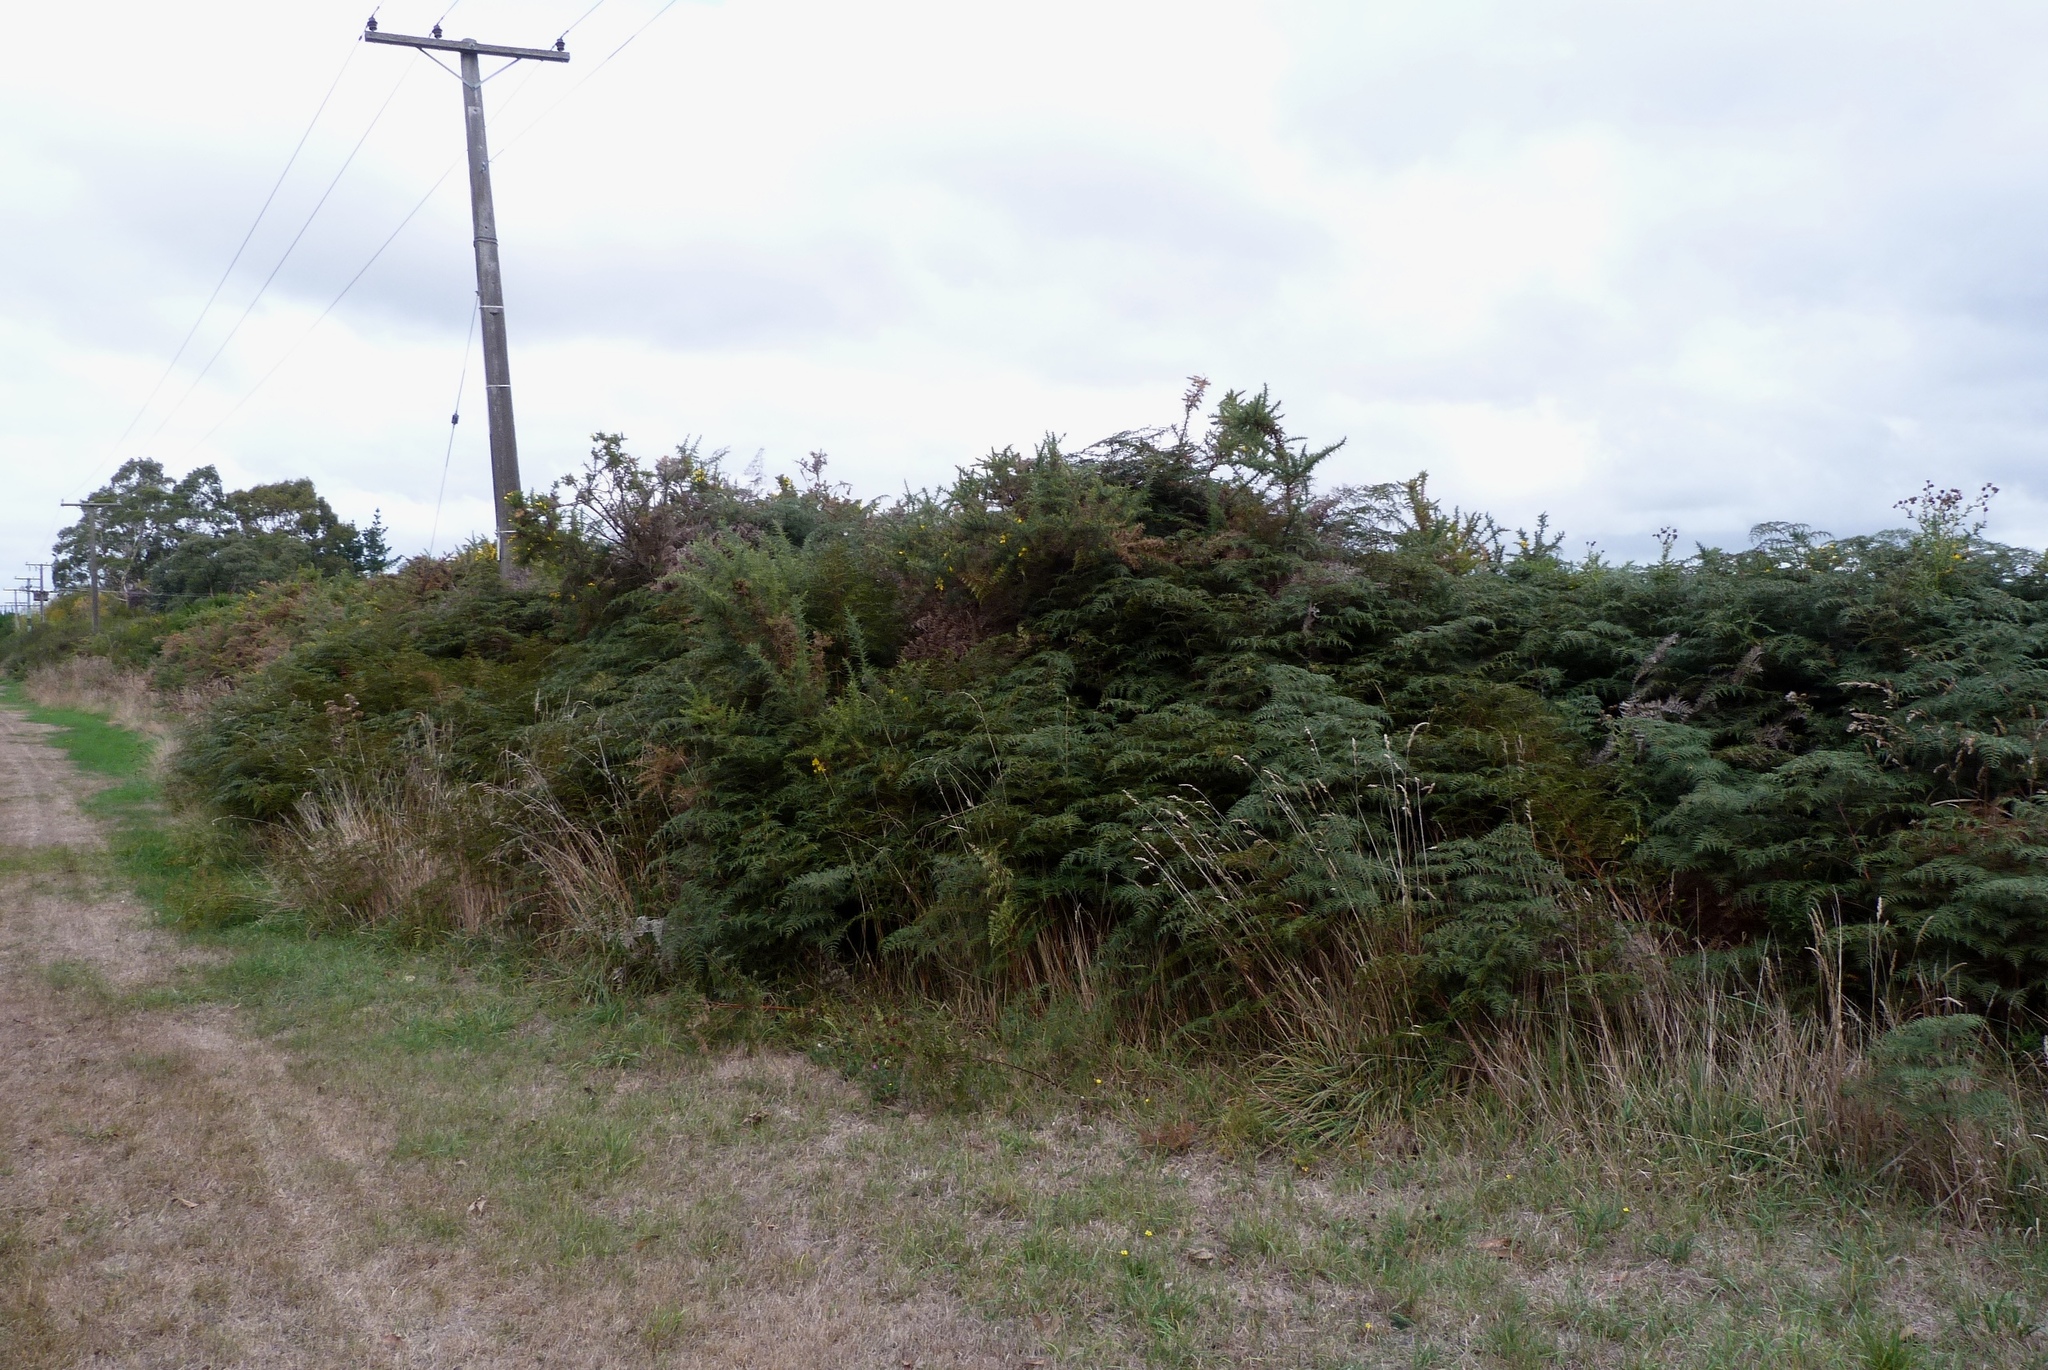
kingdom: Plantae
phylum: Tracheophyta
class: Polypodiopsida
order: Polypodiales
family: Dennstaedtiaceae
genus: Pteridium
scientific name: Pteridium esculentum
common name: Bracken fern
